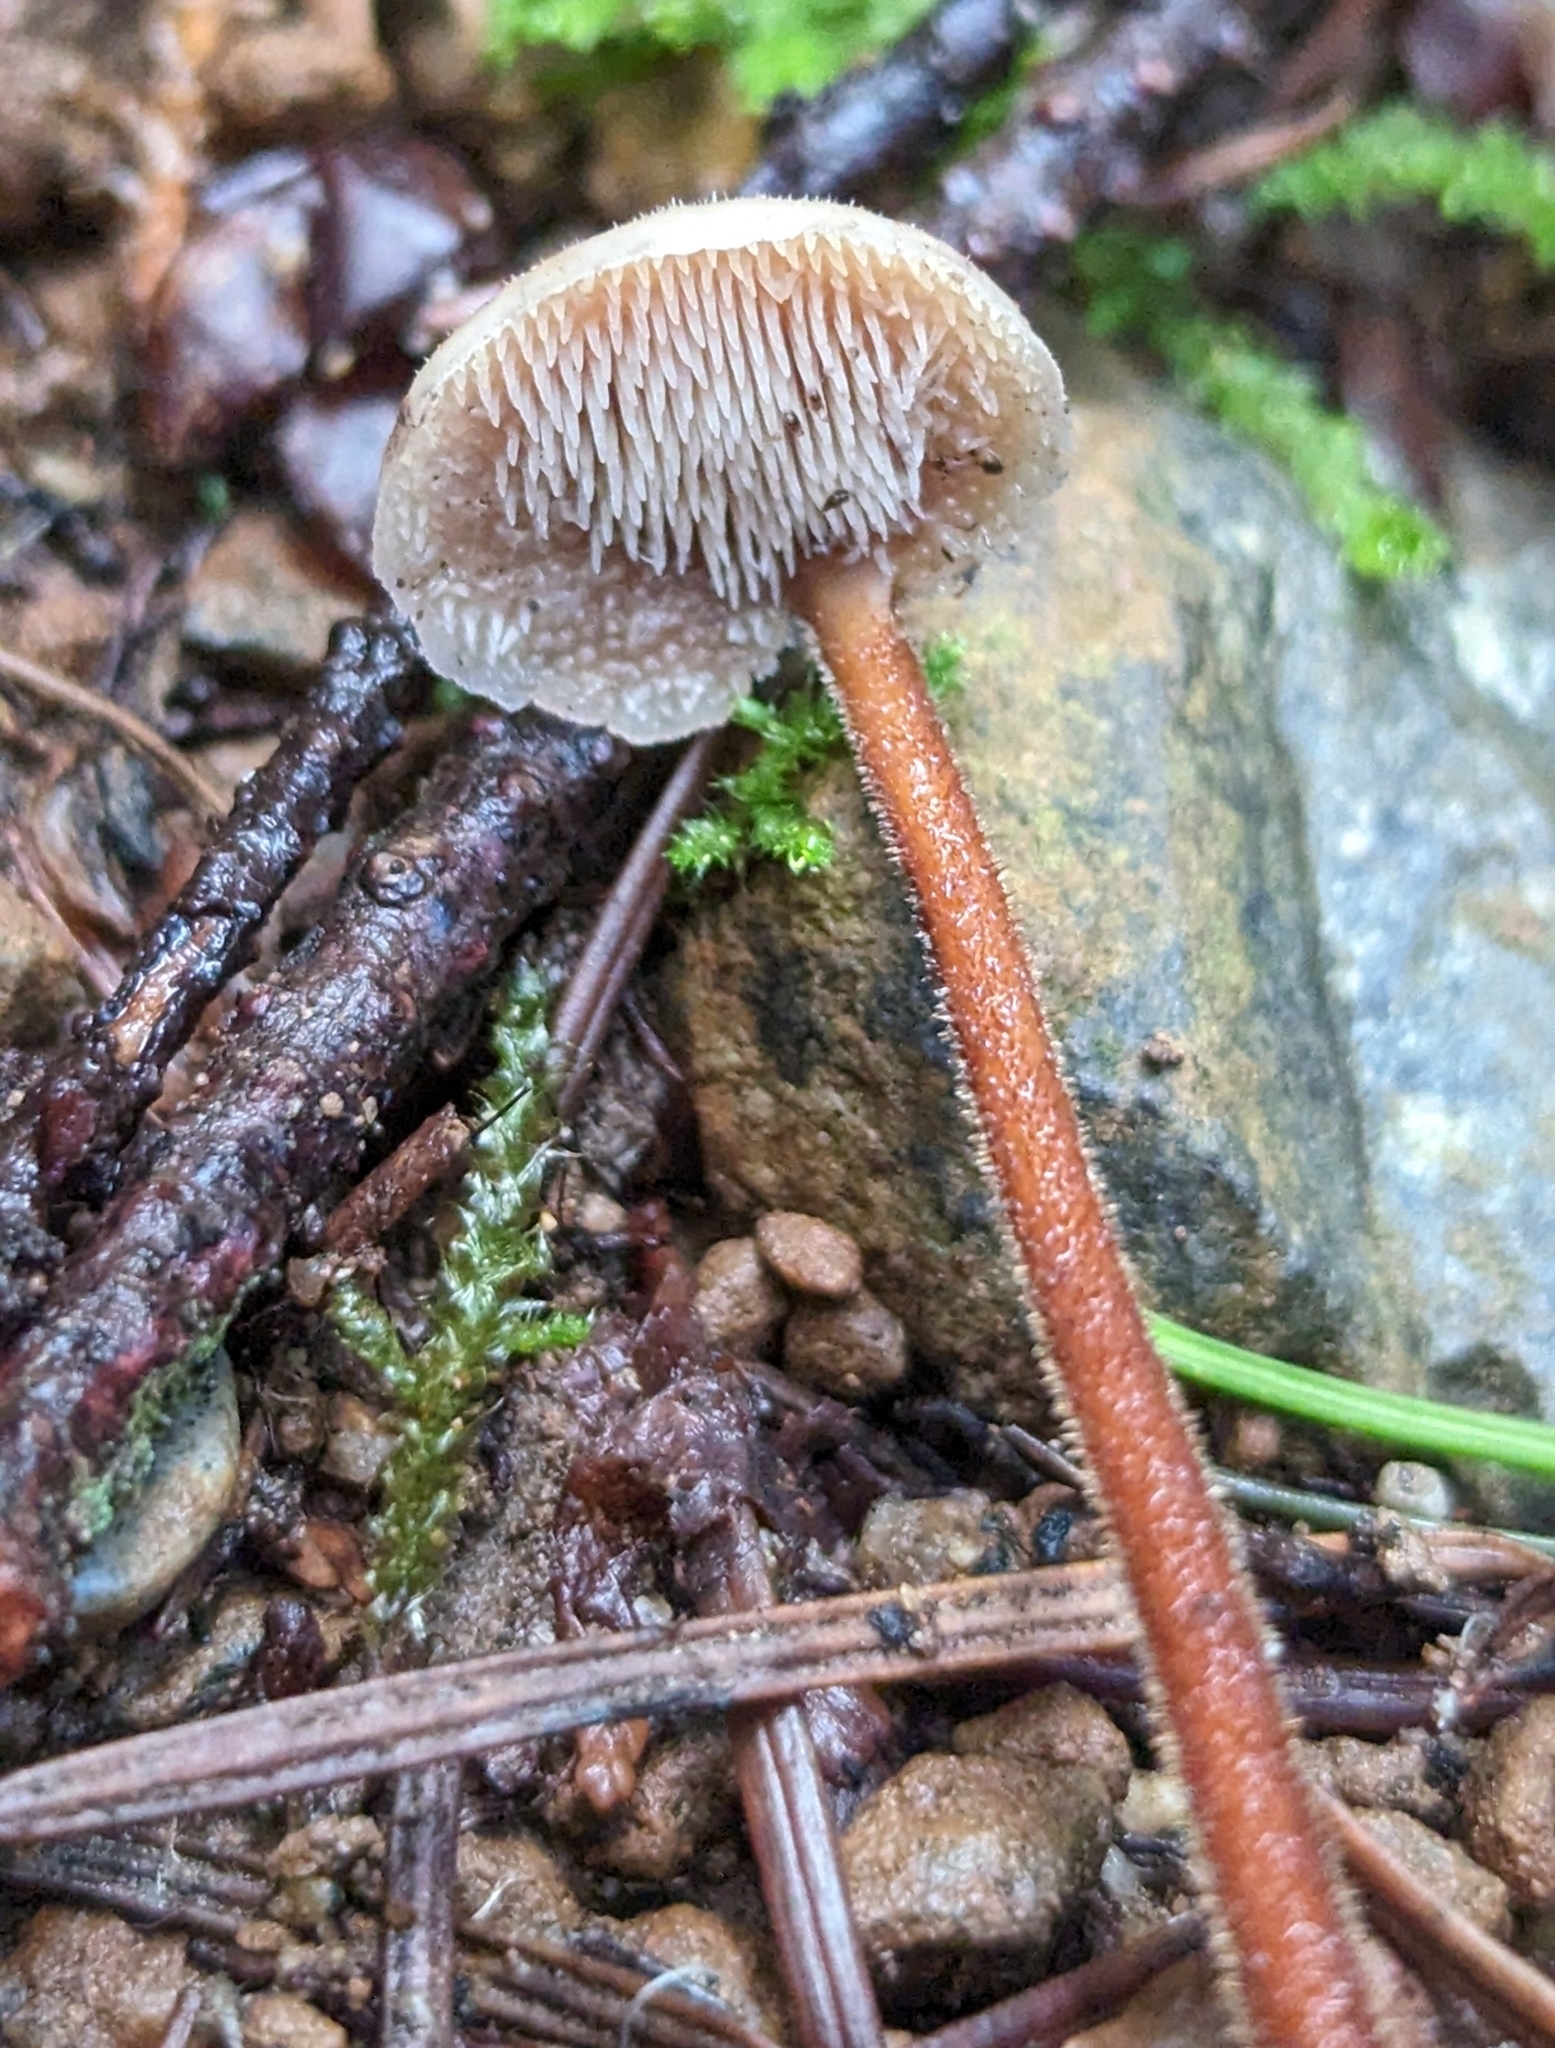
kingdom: Fungi
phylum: Basidiomycota
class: Agaricomycetes
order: Russulales
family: Auriscalpiaceae
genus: Auriscalpium
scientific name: Auriscalpium vulgare
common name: Earpick fungus
